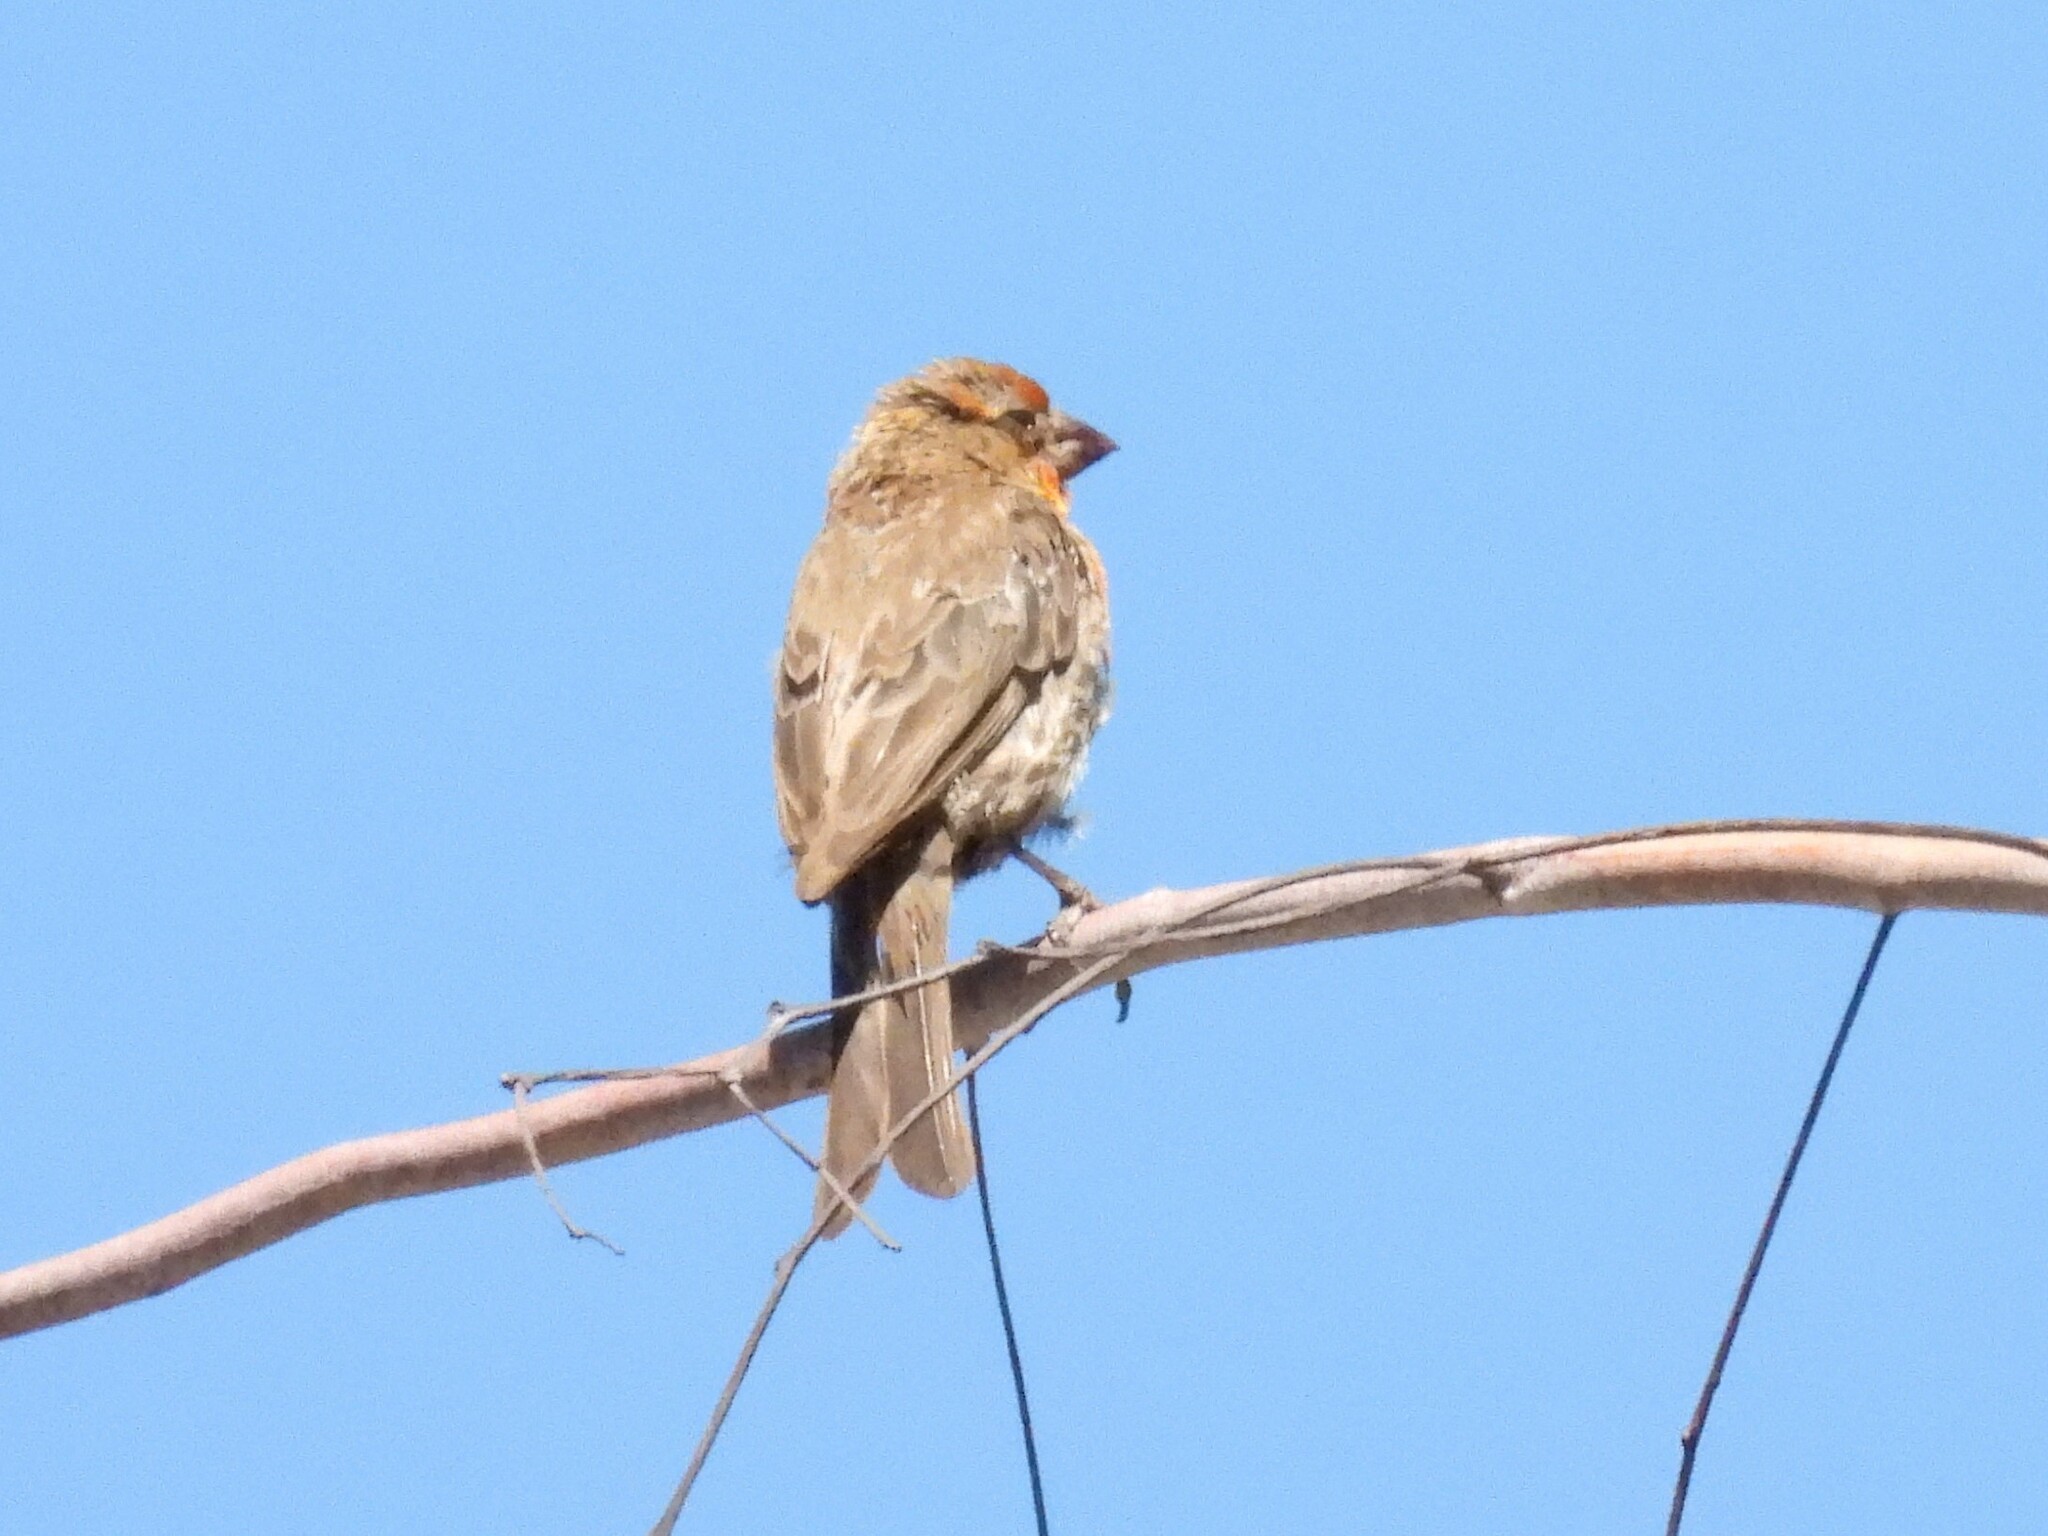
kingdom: Animalia
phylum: Chordata
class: Aves
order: Passeriformes
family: Fringillidae
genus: Haemorhous
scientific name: Haemorhous mexicanus
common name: House finch
